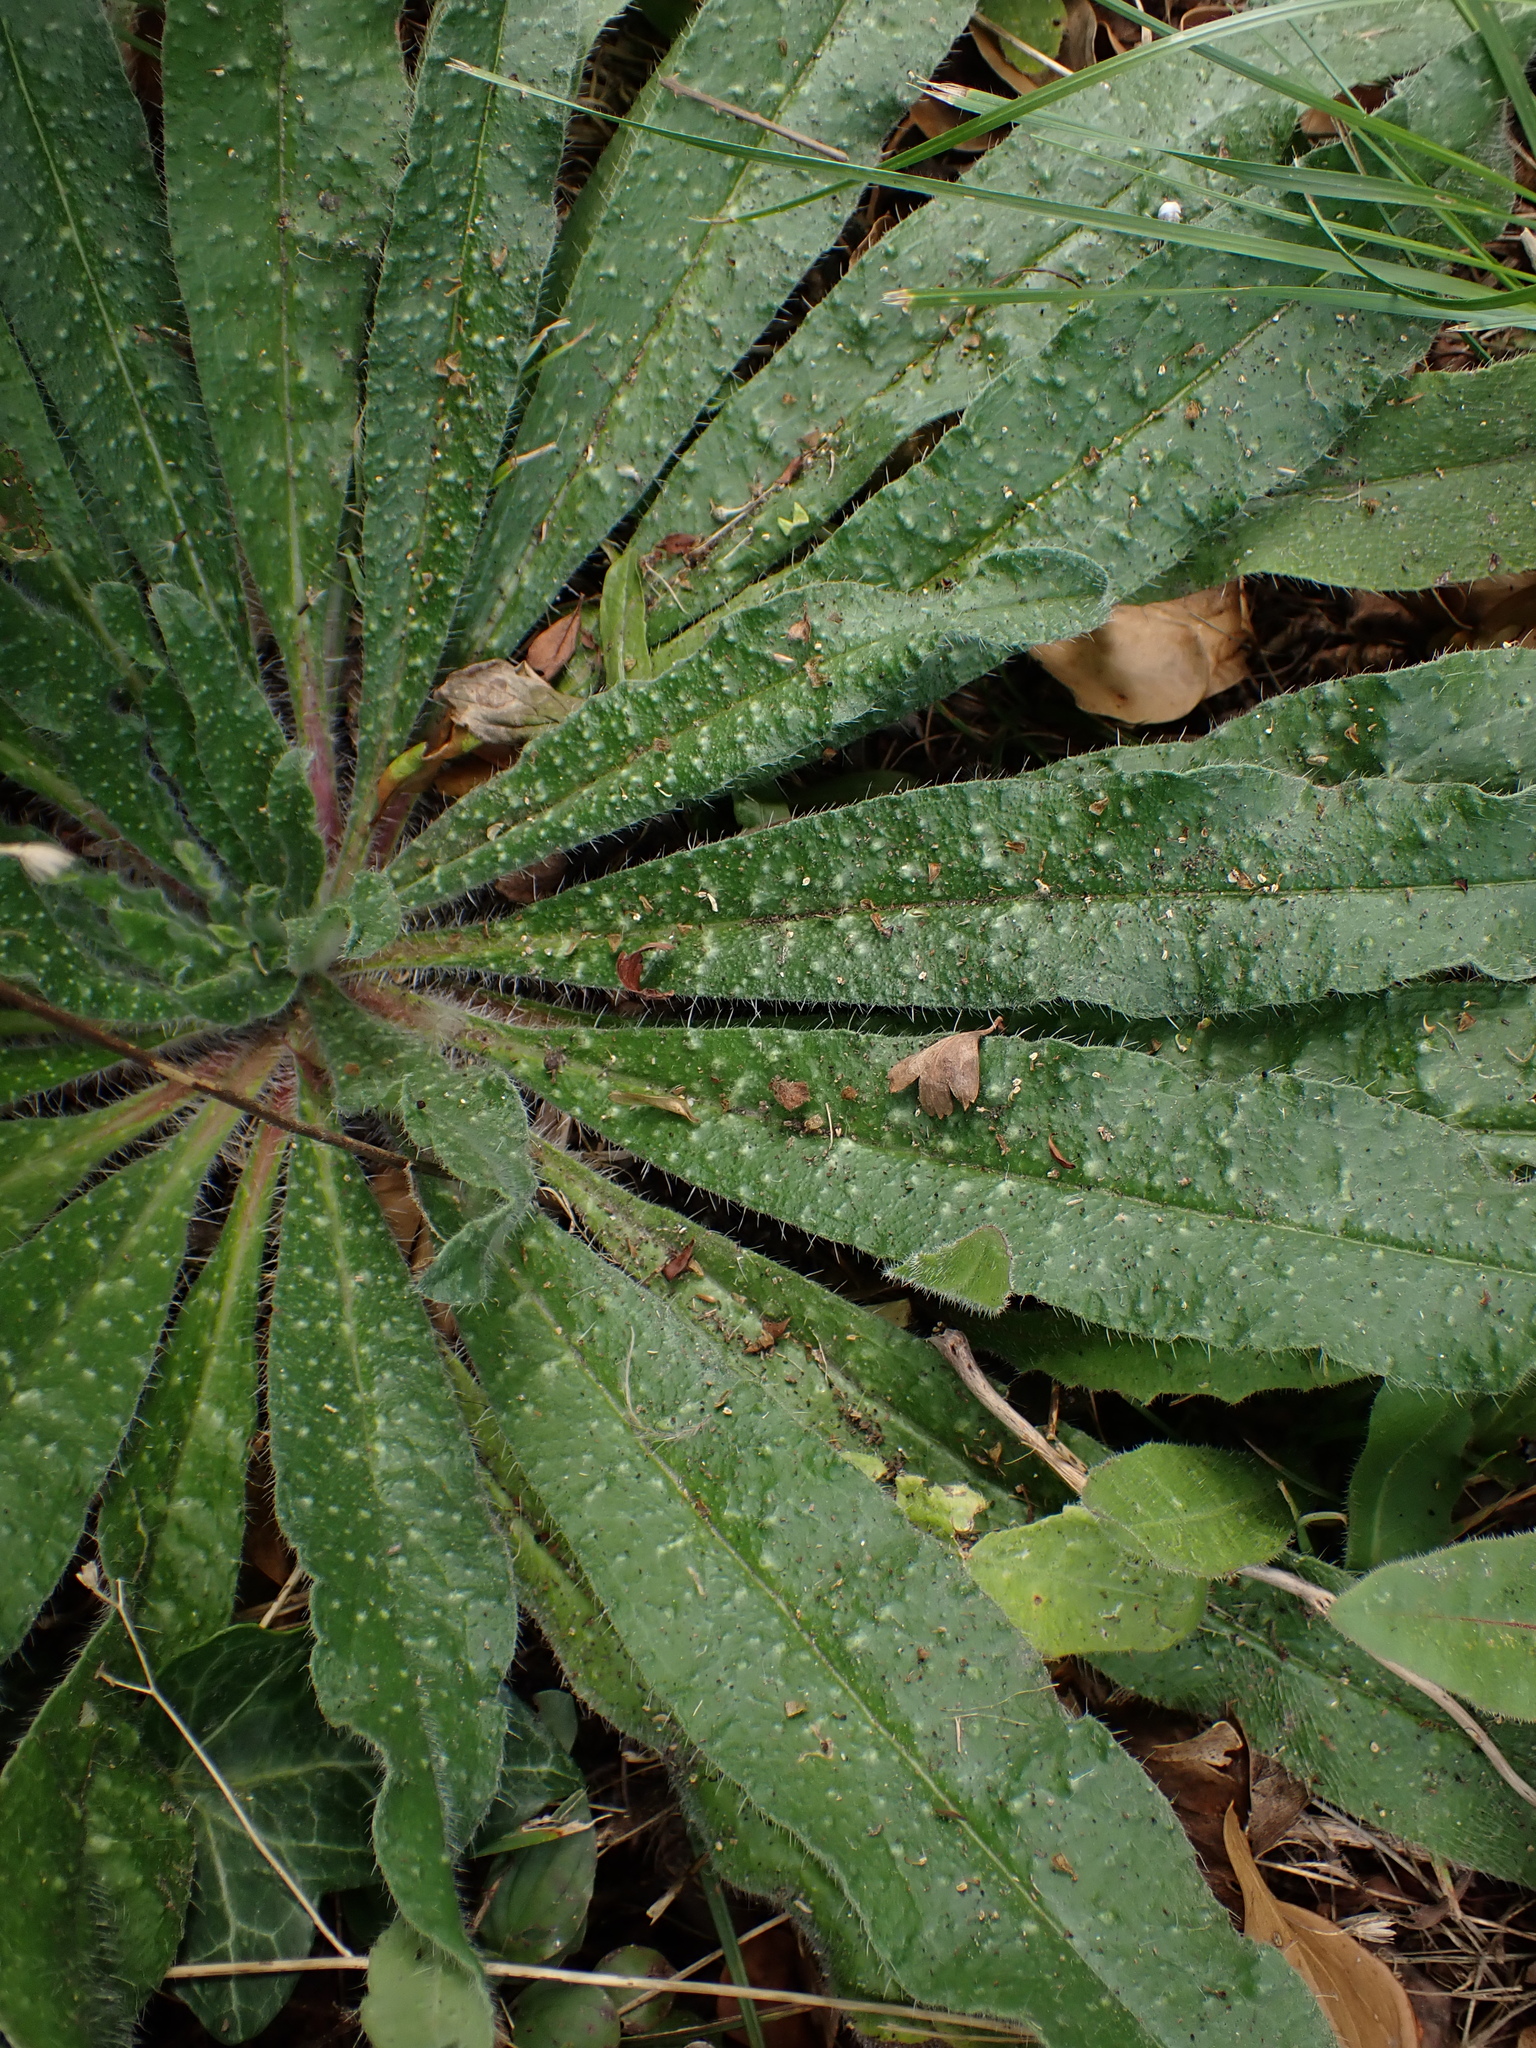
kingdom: Plantae
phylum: Tracheophyta
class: Magnoliopsida
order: Boraginales
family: Boraginaceae
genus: Echium
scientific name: Echium vulgare
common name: Common viper's bugloss
